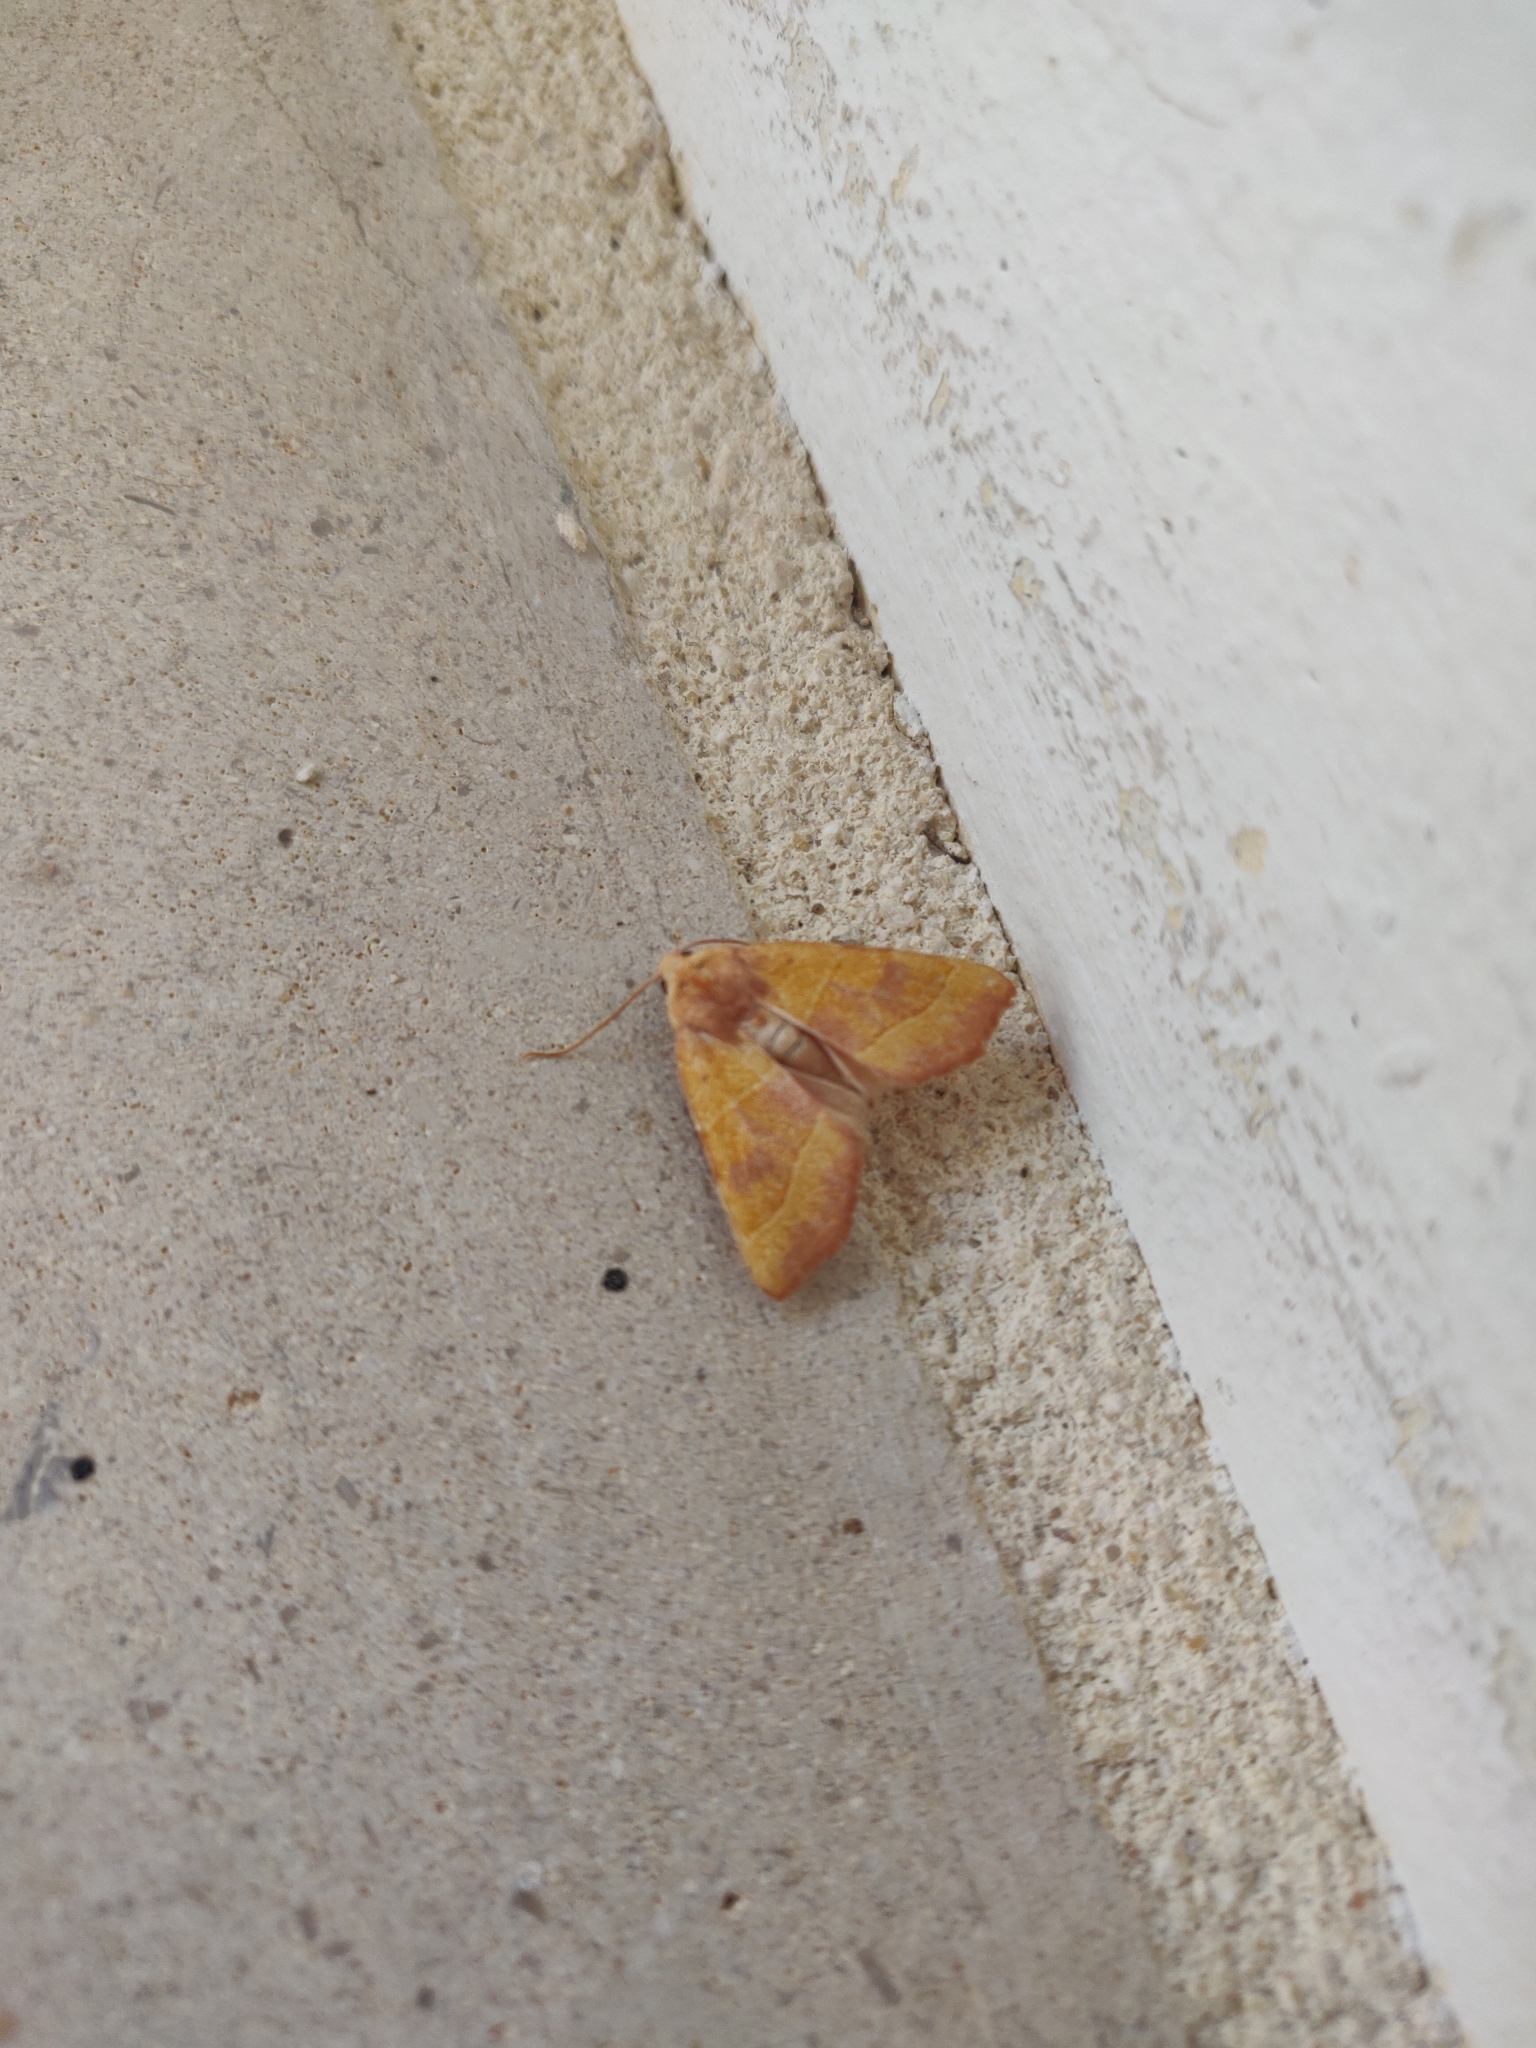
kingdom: Animalia
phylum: Arthropoda
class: Insecta
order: Lepidoptera
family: Noctuidae
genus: Atethmia
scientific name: Atethmia centrago
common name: Centre-barred sallow
